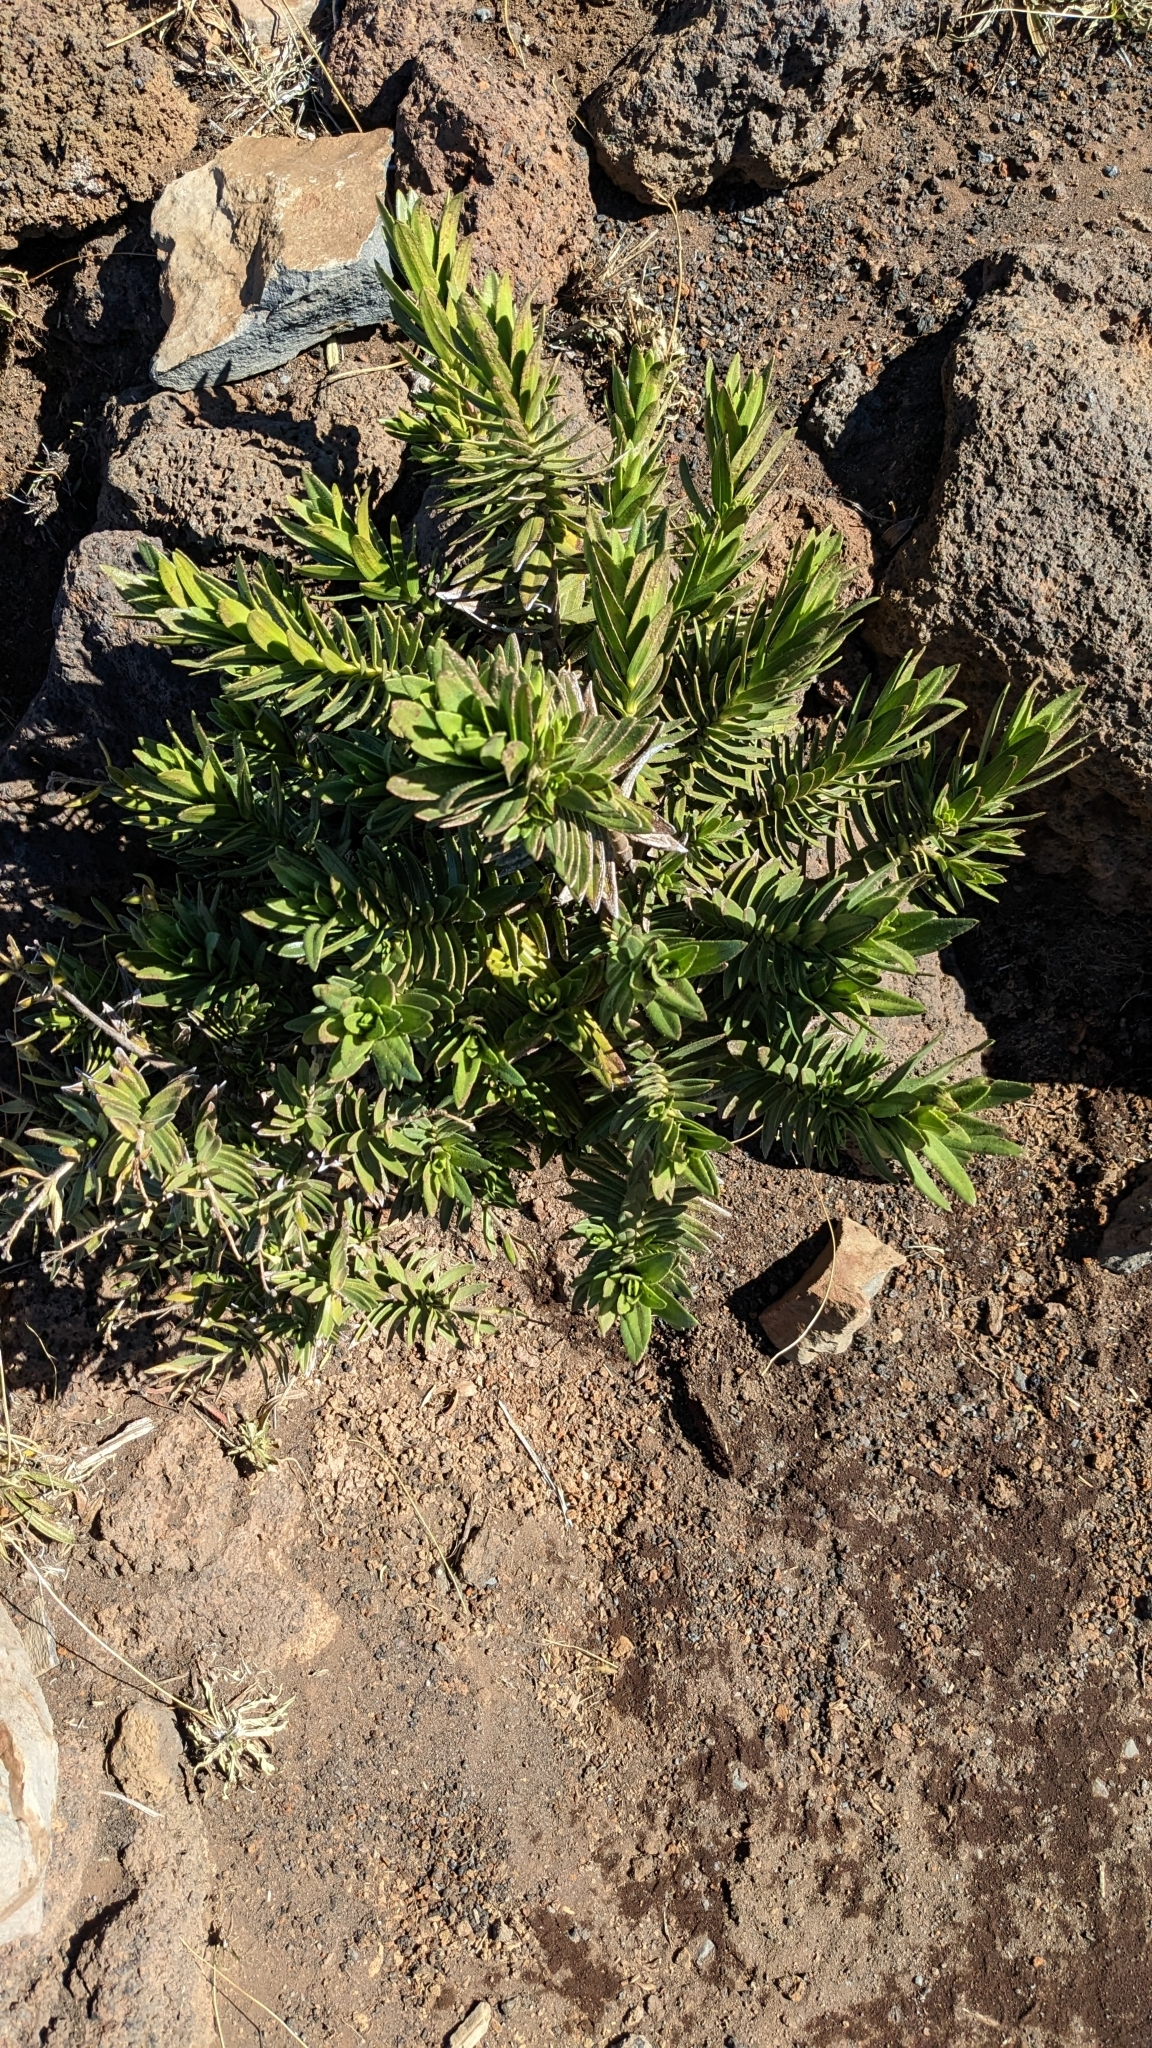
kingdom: Plantae
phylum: Tracheophyta
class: Magnoliopsida
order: Asterales
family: Asteraceae
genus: Dubautia
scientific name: Dubautia menziesii
